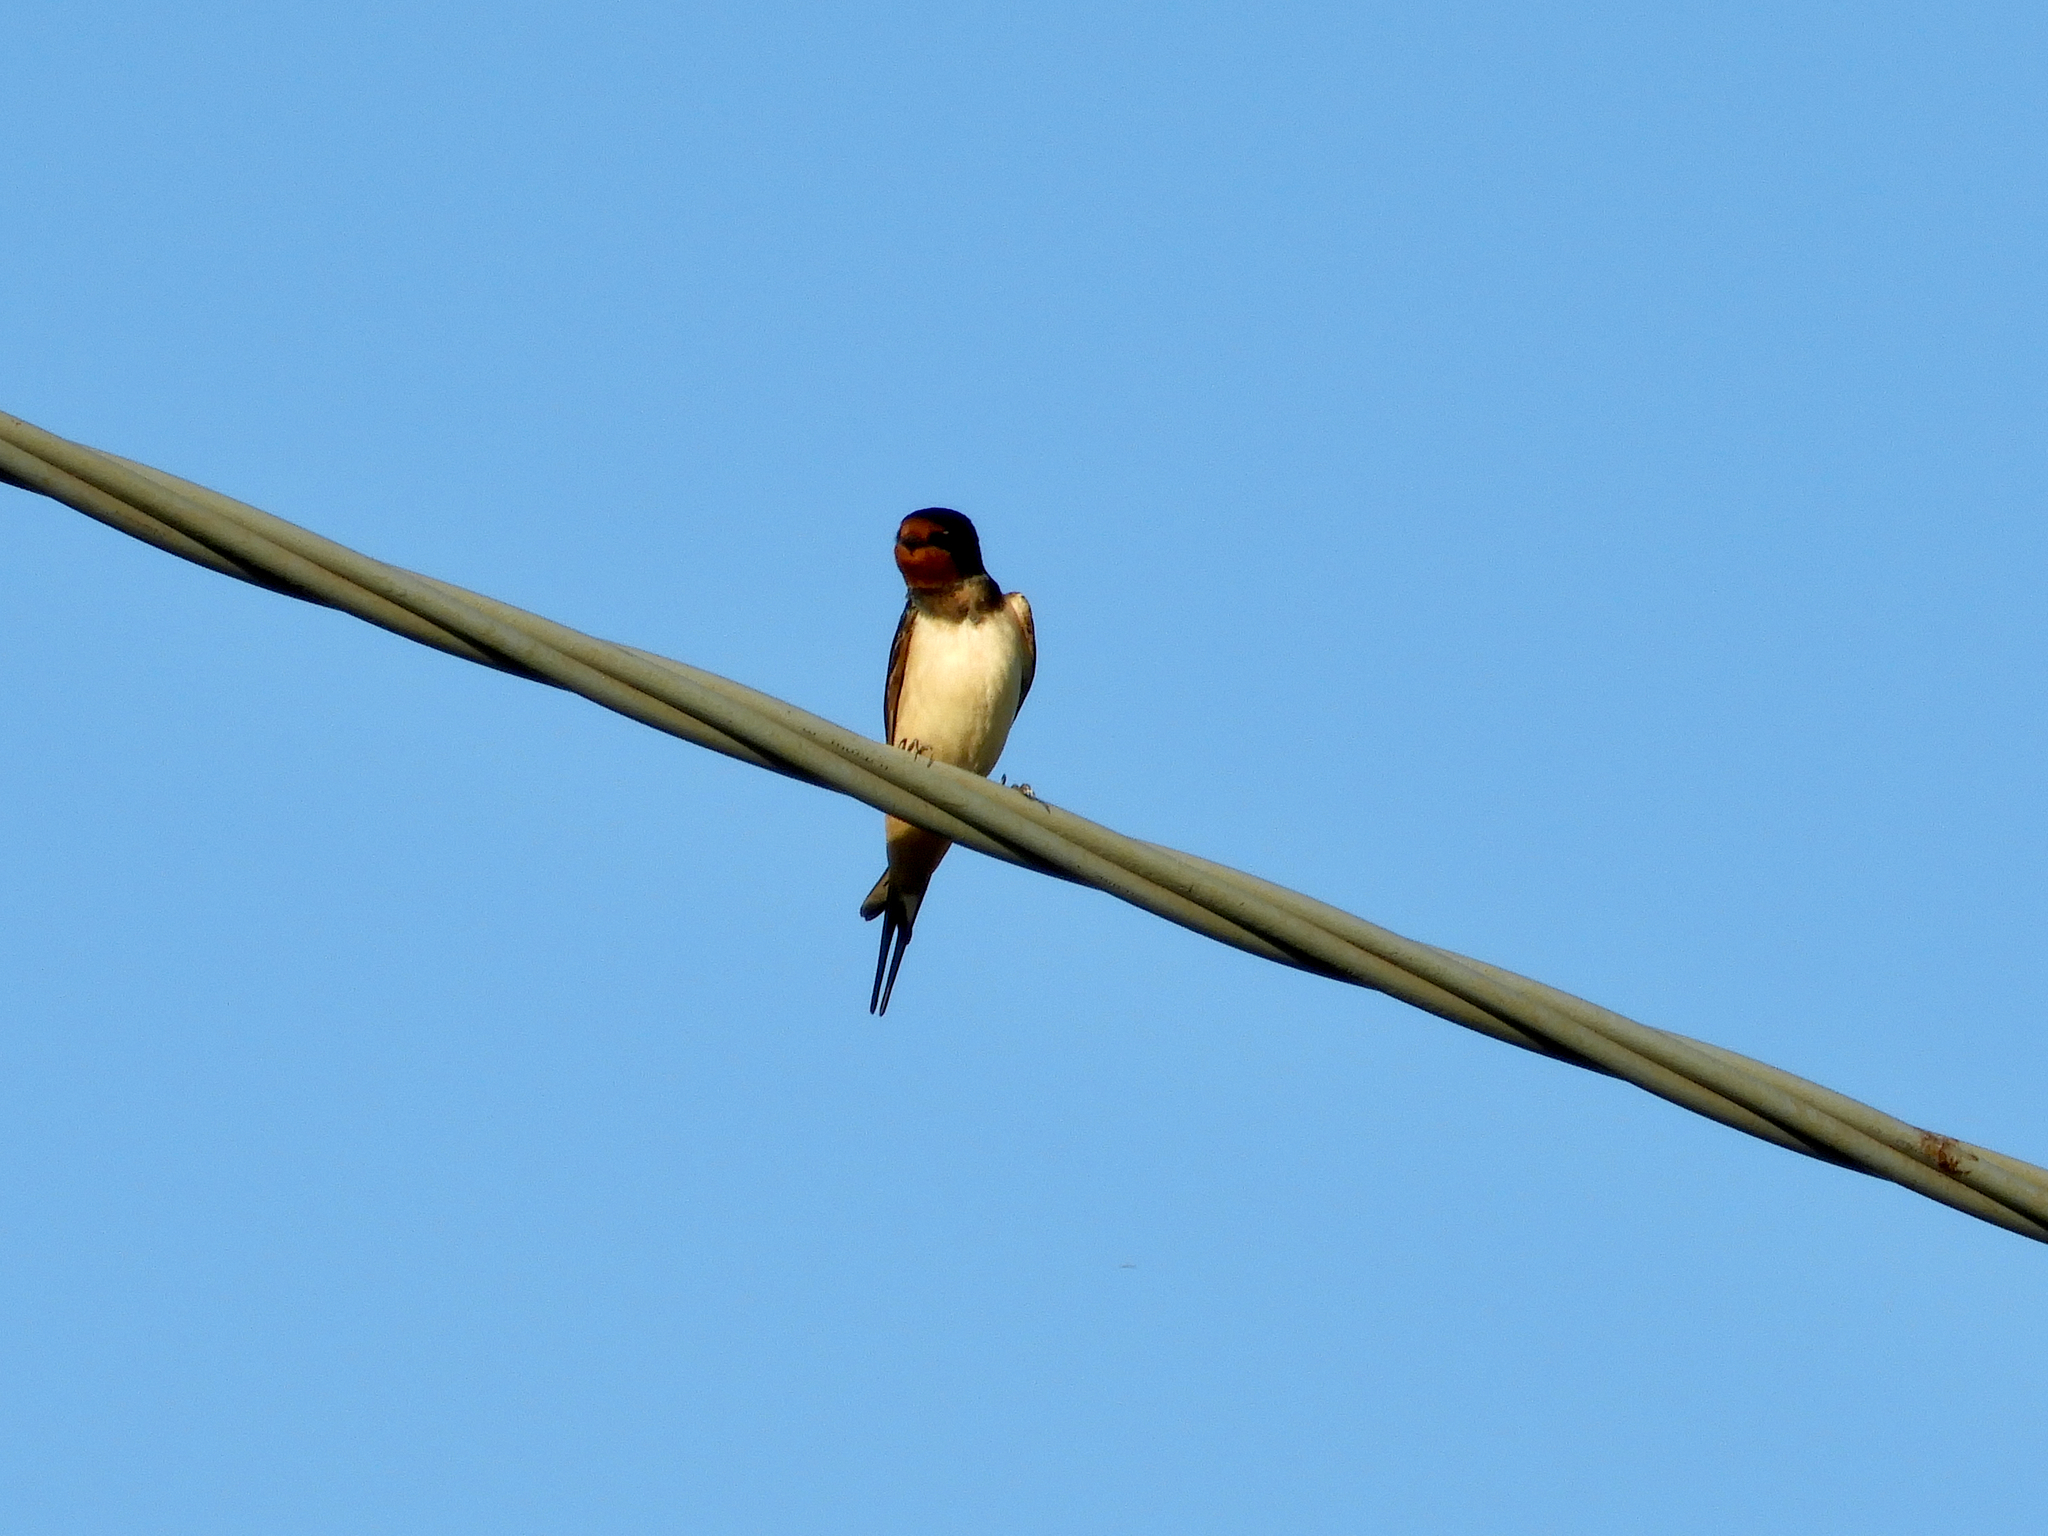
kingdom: Animalia
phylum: Chordata
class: Aves
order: Passeriformes
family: Hirundinidae
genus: Hirundo
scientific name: Hirundo rustica
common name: Barn swallow
